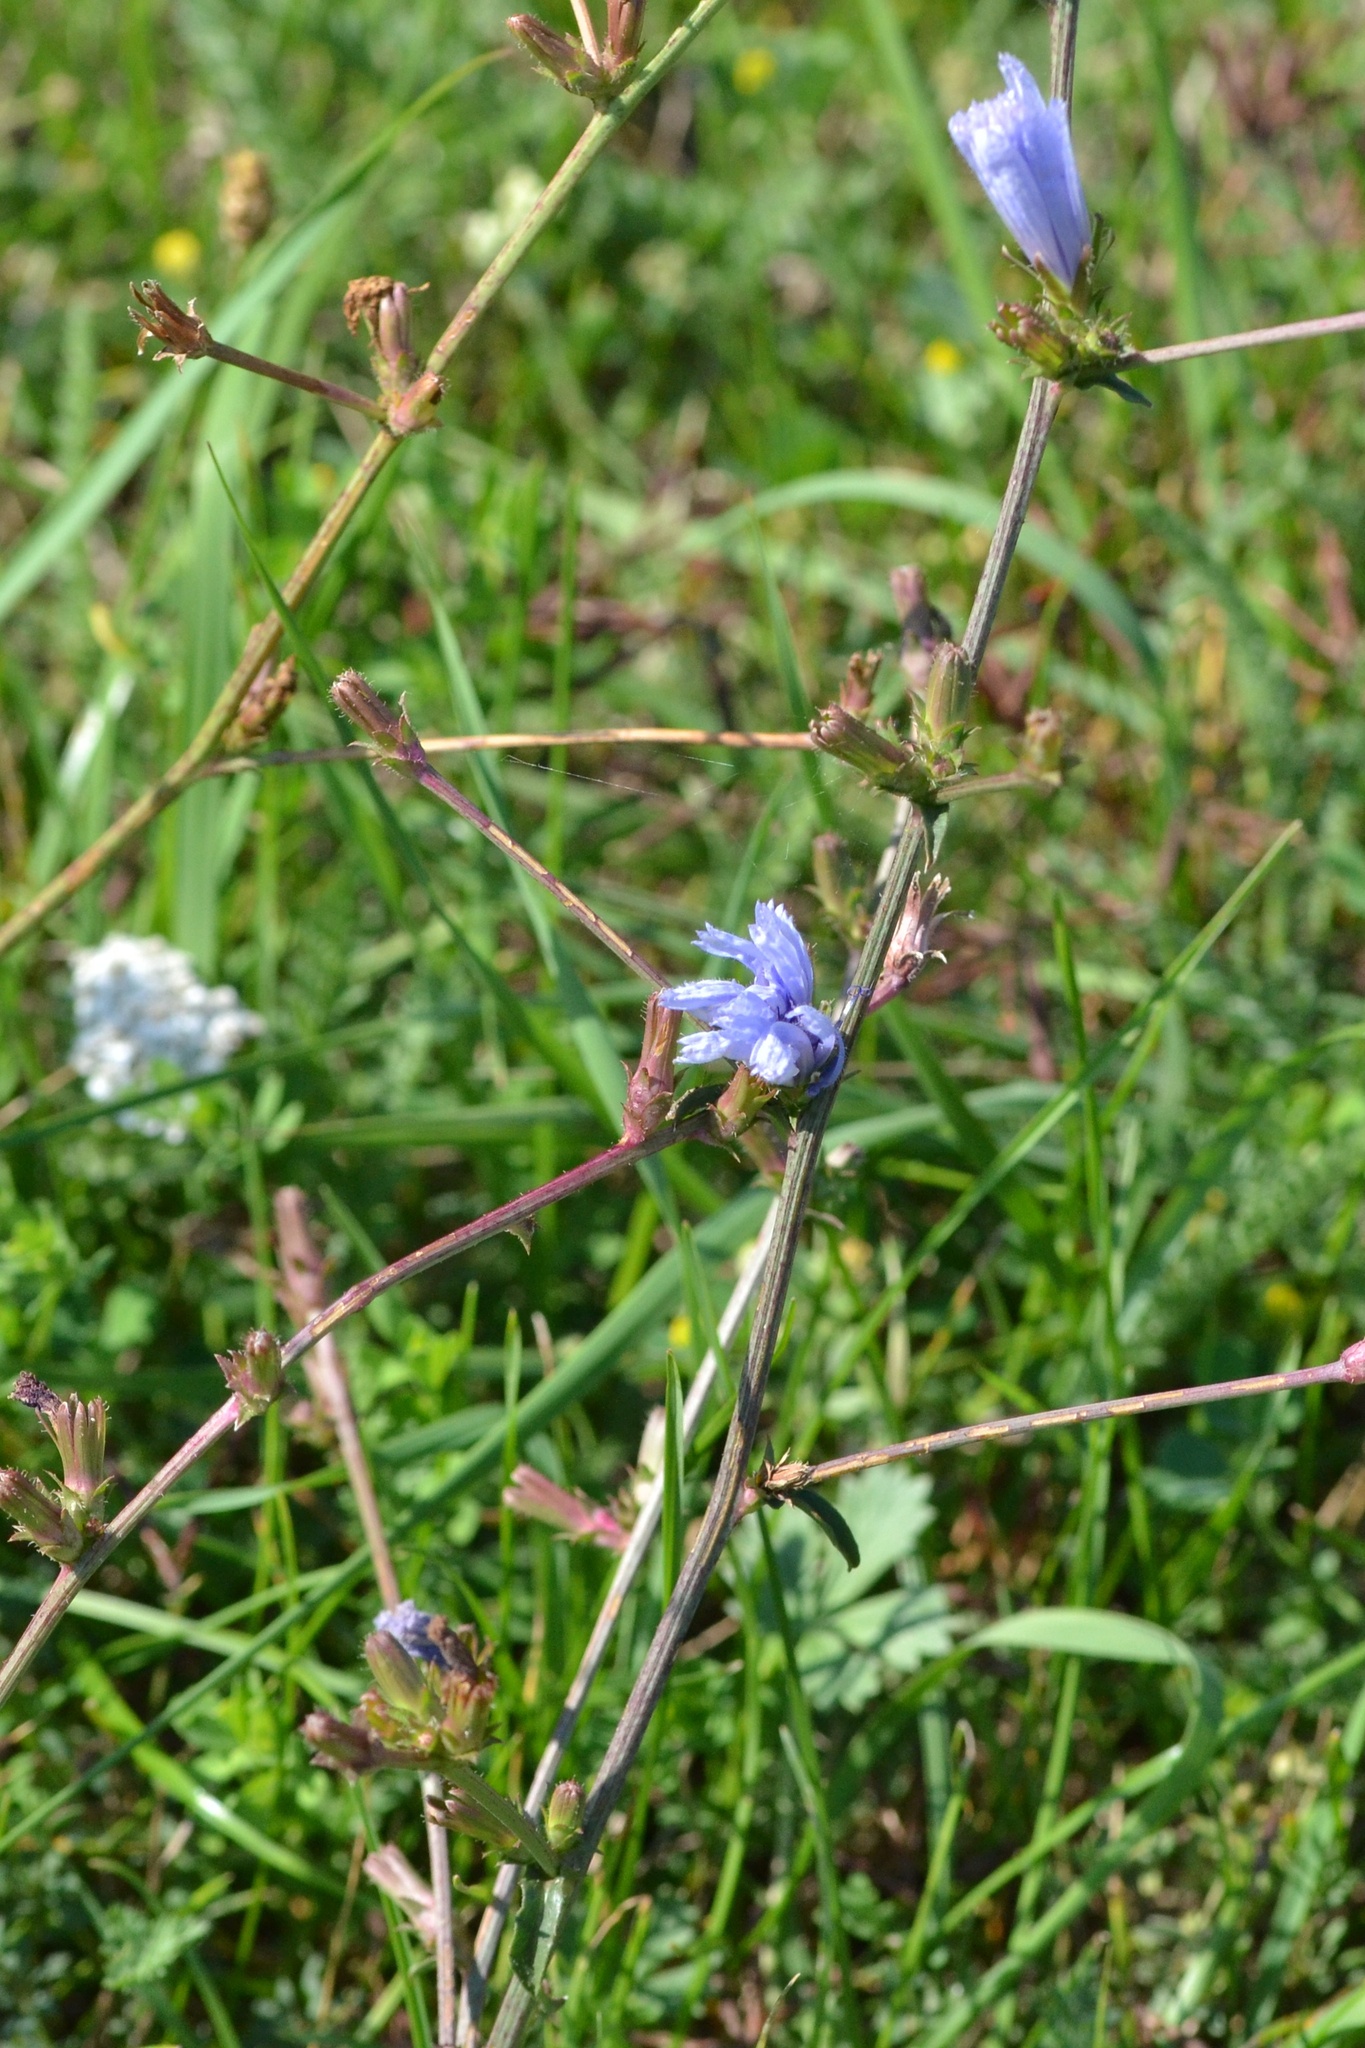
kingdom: Plantae
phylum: Tracheophyta
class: Magnoliopsida
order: Asterales
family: Asteraceae
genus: Cichorium
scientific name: Cichorium intybus
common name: Chicory
